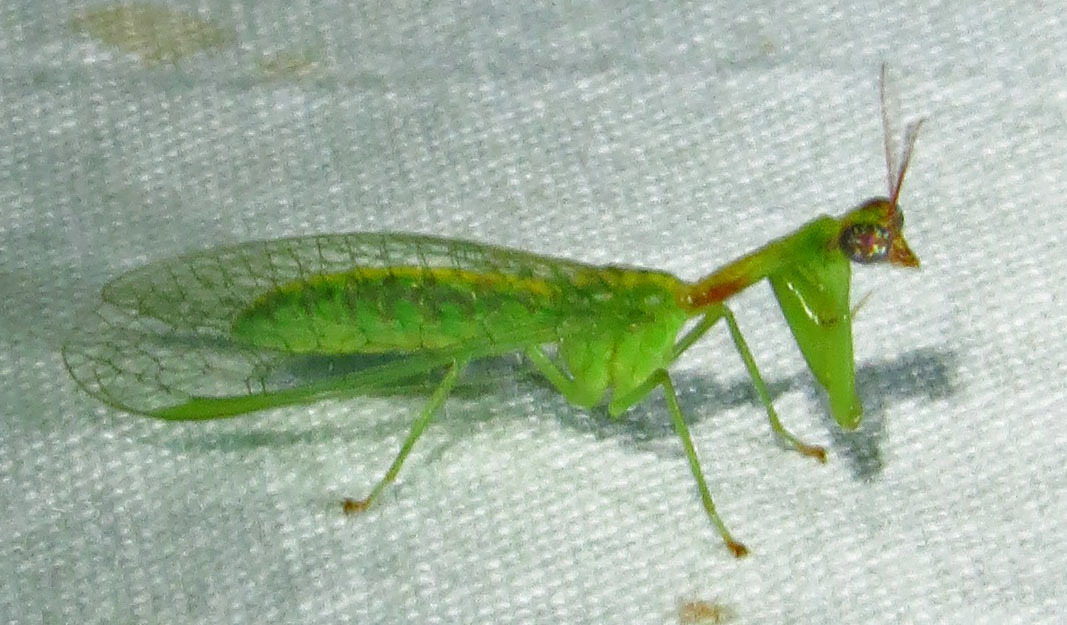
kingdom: Animalia
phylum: Arthropoda
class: Insecta
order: Neuroptera
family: Mantispidae
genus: Zeugomantispa
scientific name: Zeugomantispa minuta
